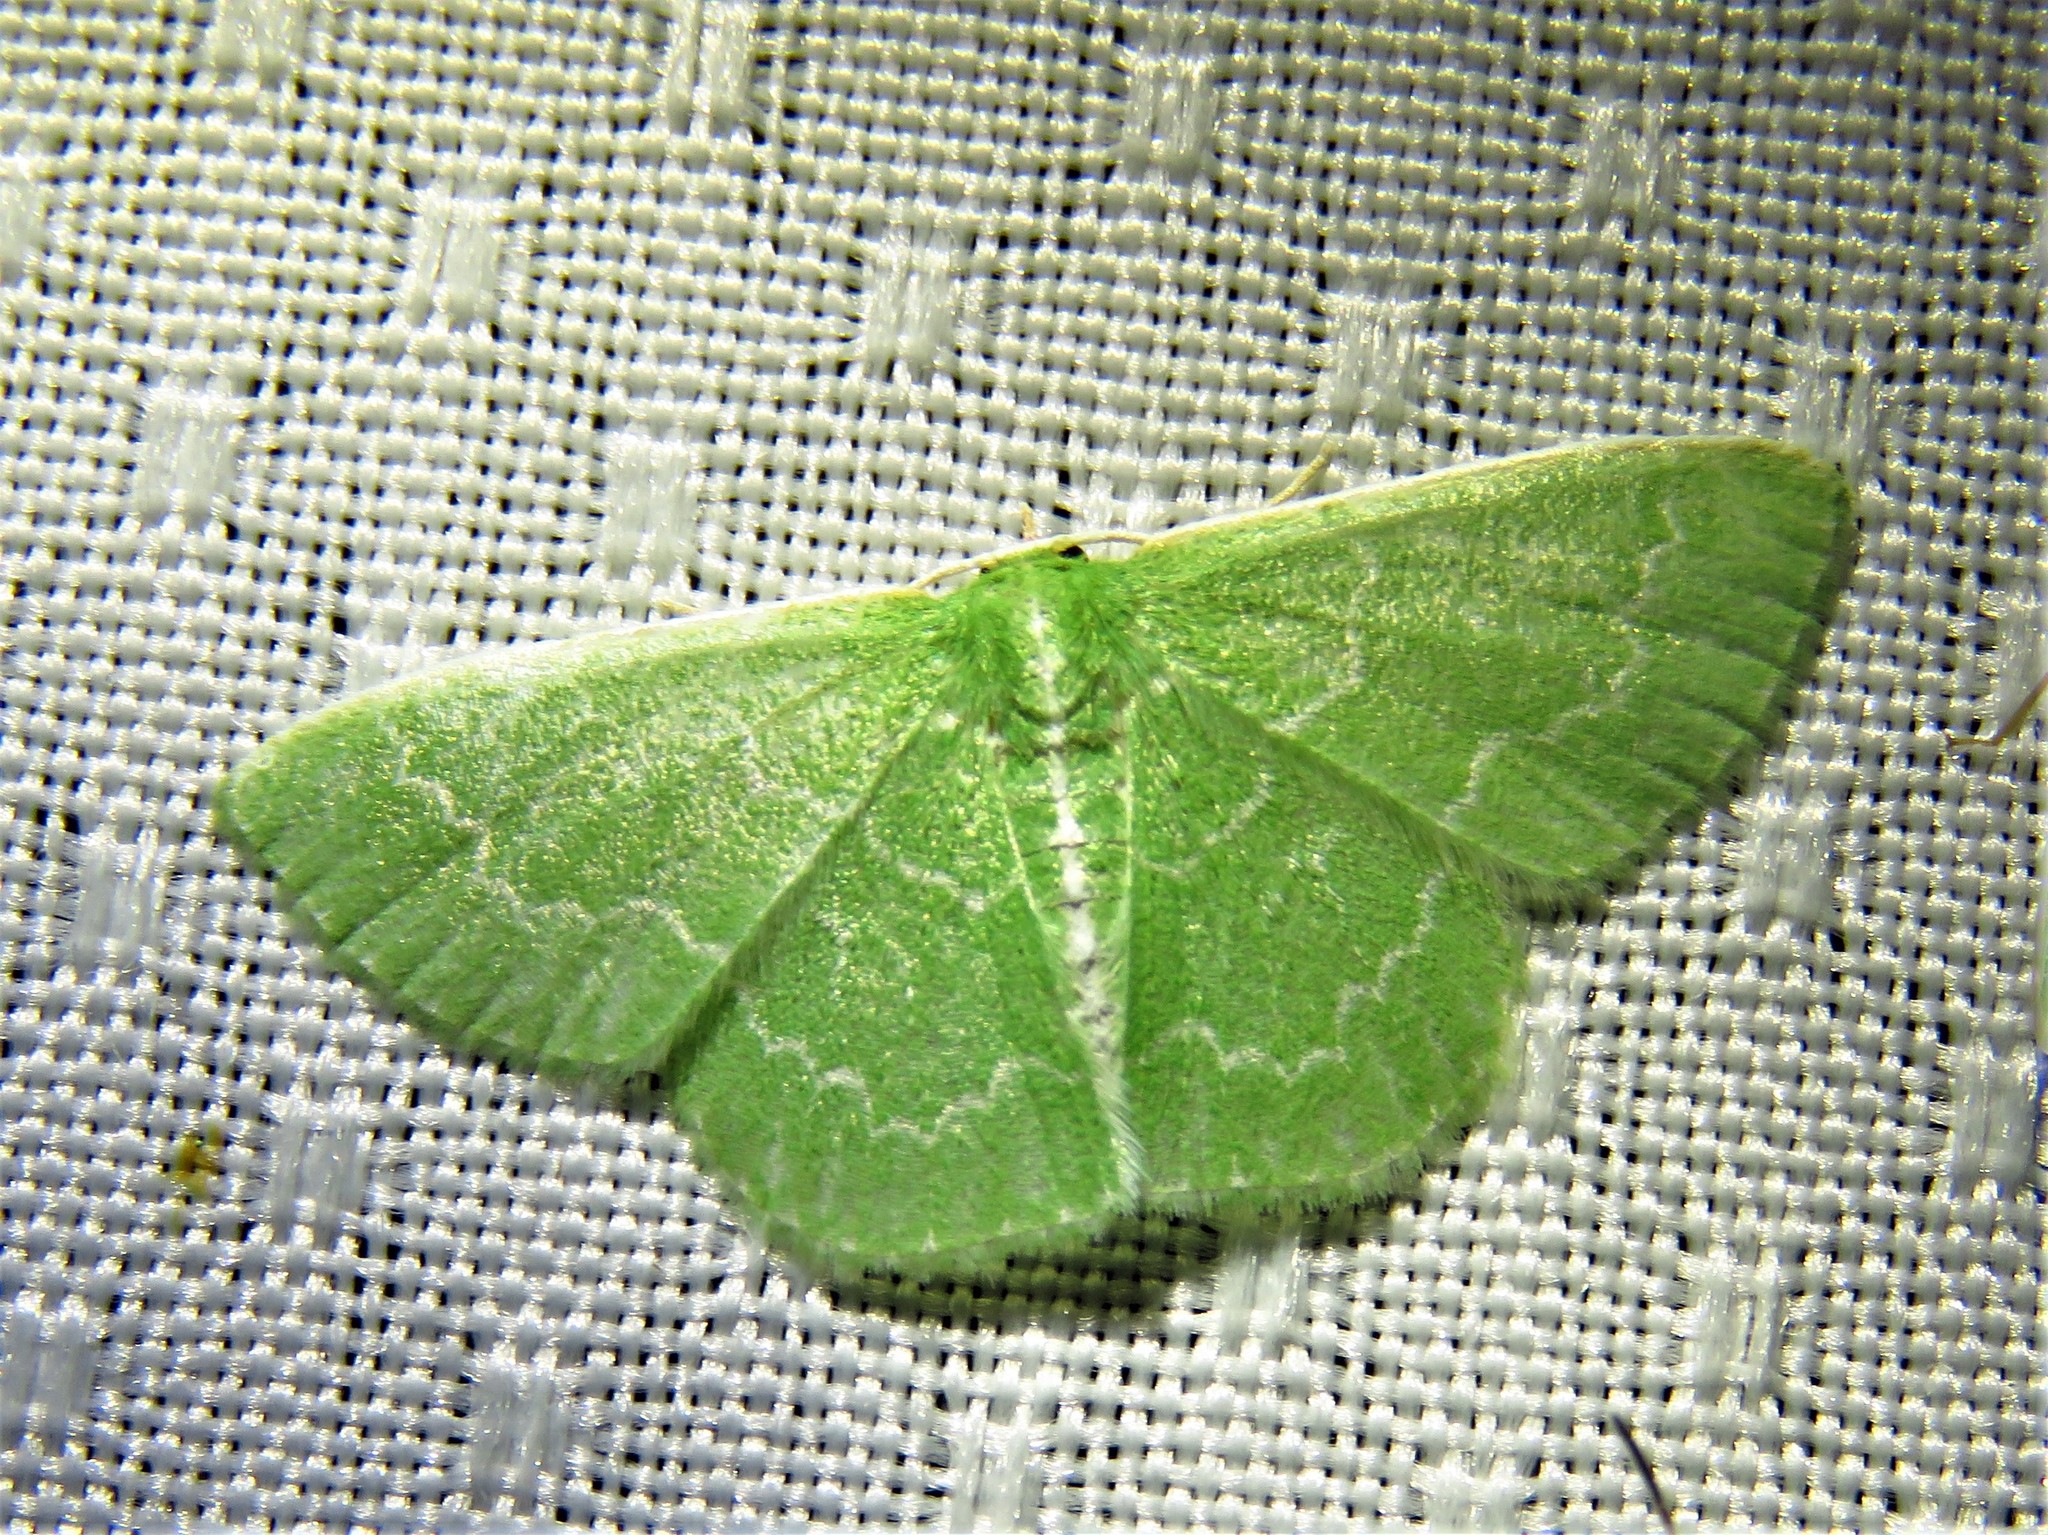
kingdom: Animalia
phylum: Arthropoda
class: Insecta
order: Lepidoptera
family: Geometridae
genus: Synchlora
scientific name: Synchlora frondaria
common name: Southern emerald
